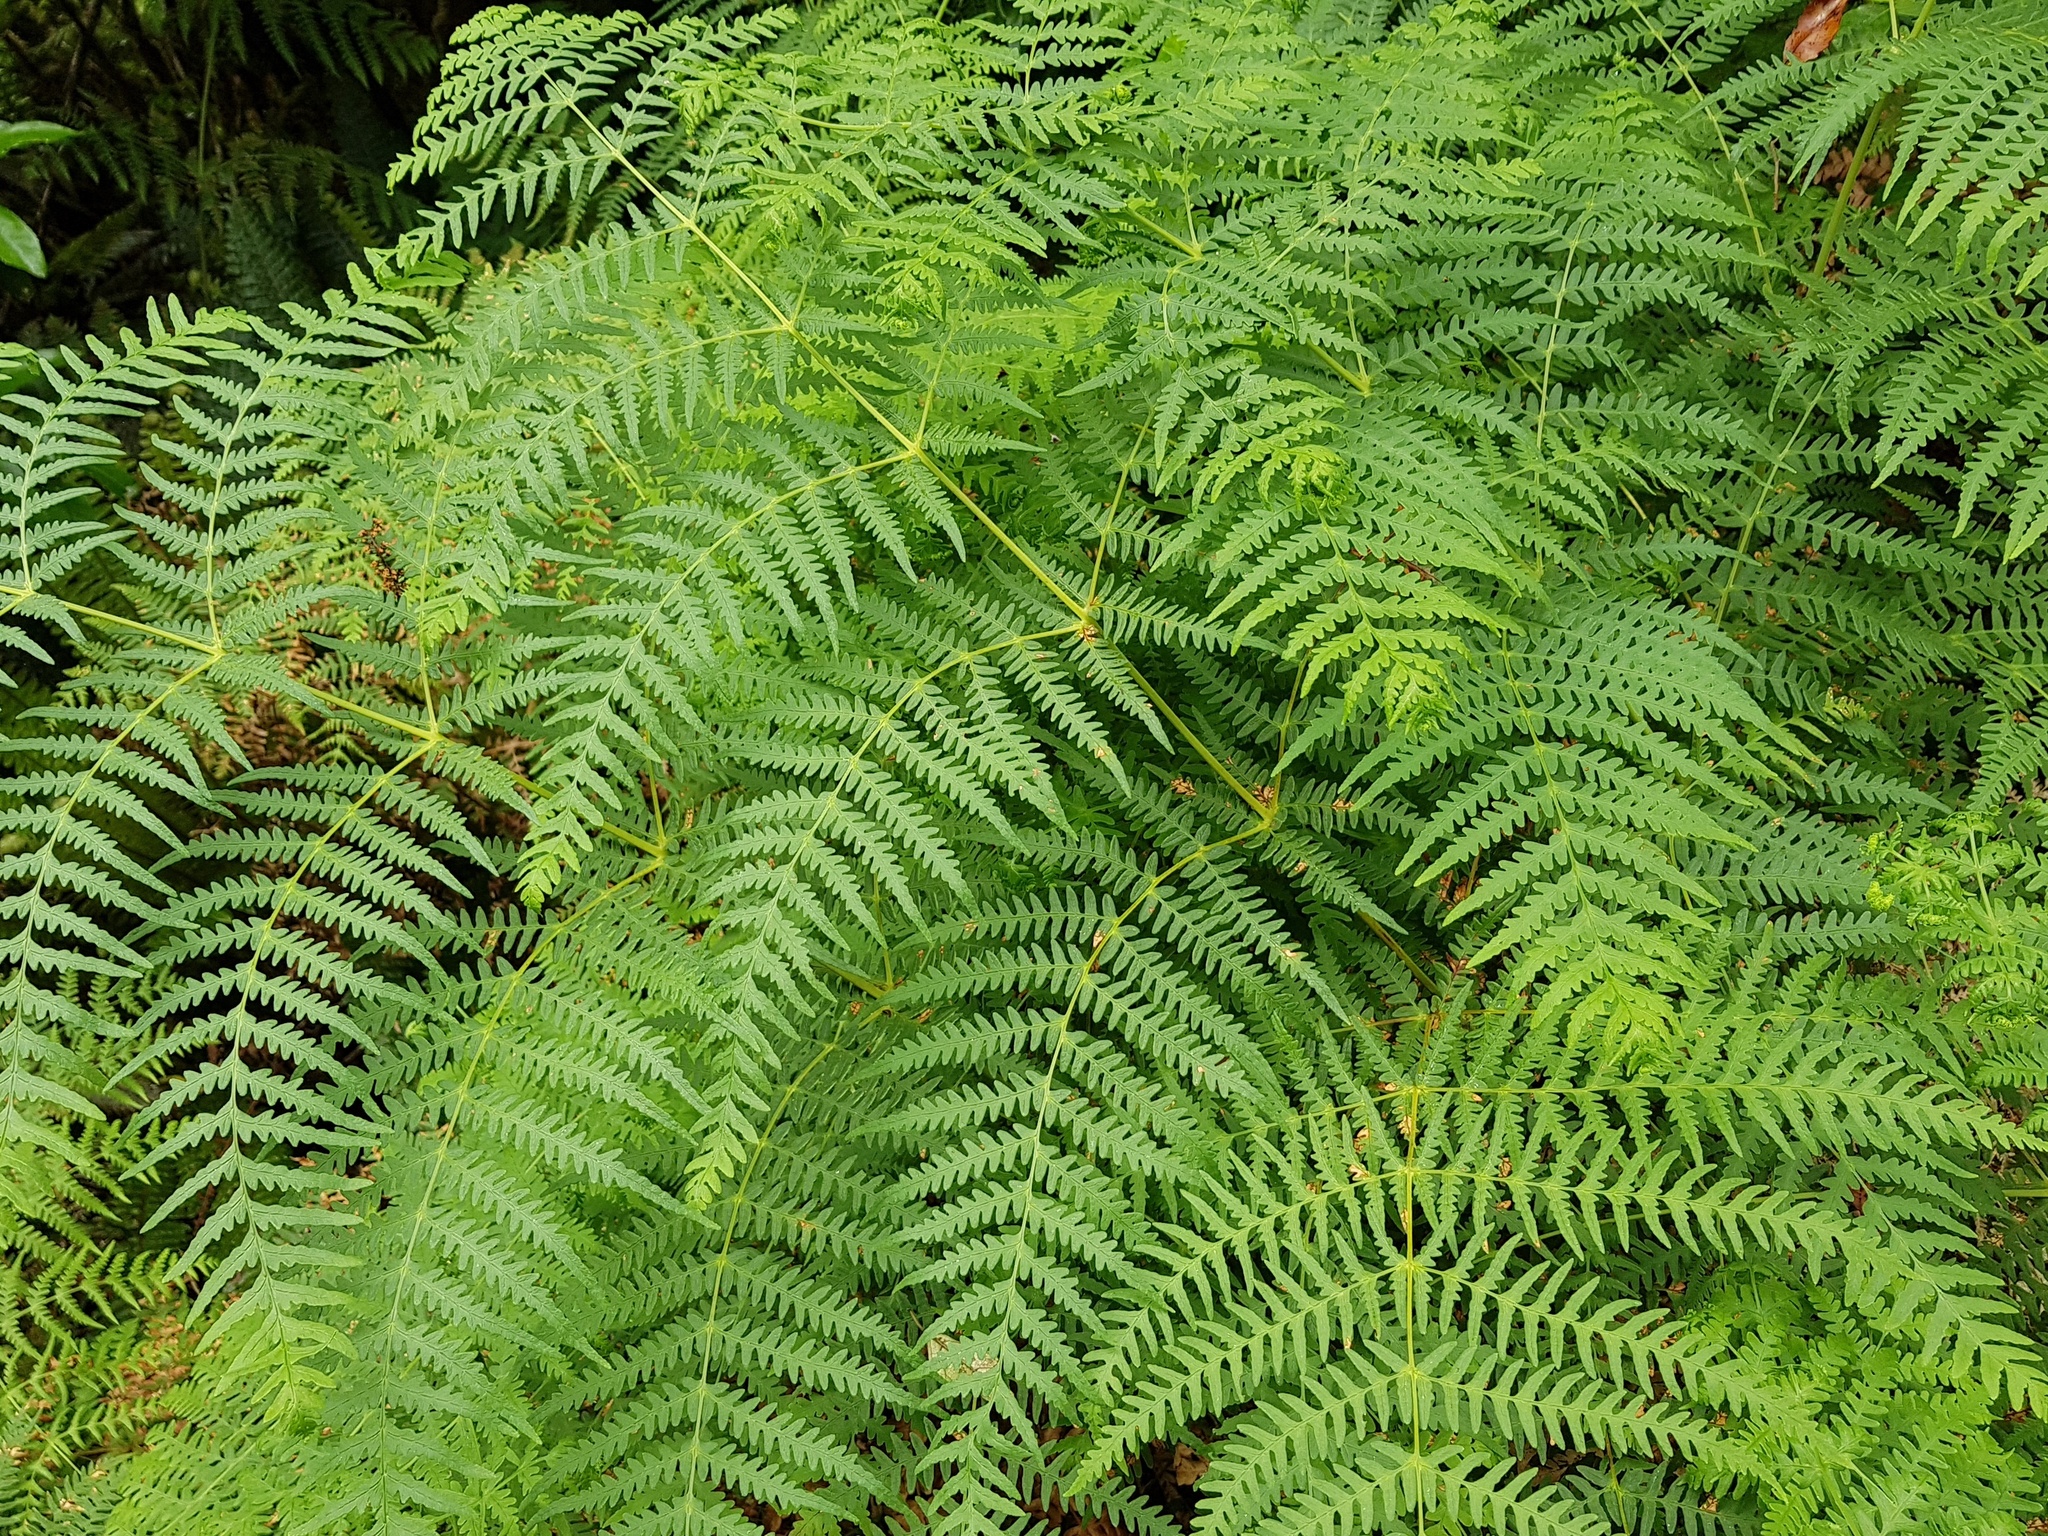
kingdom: Plantae
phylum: Tracheophyta
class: Polypodiopsida
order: Polypodiales
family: Dennstaedtiaceae
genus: Histiopteris
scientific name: Histiopteris incisa
